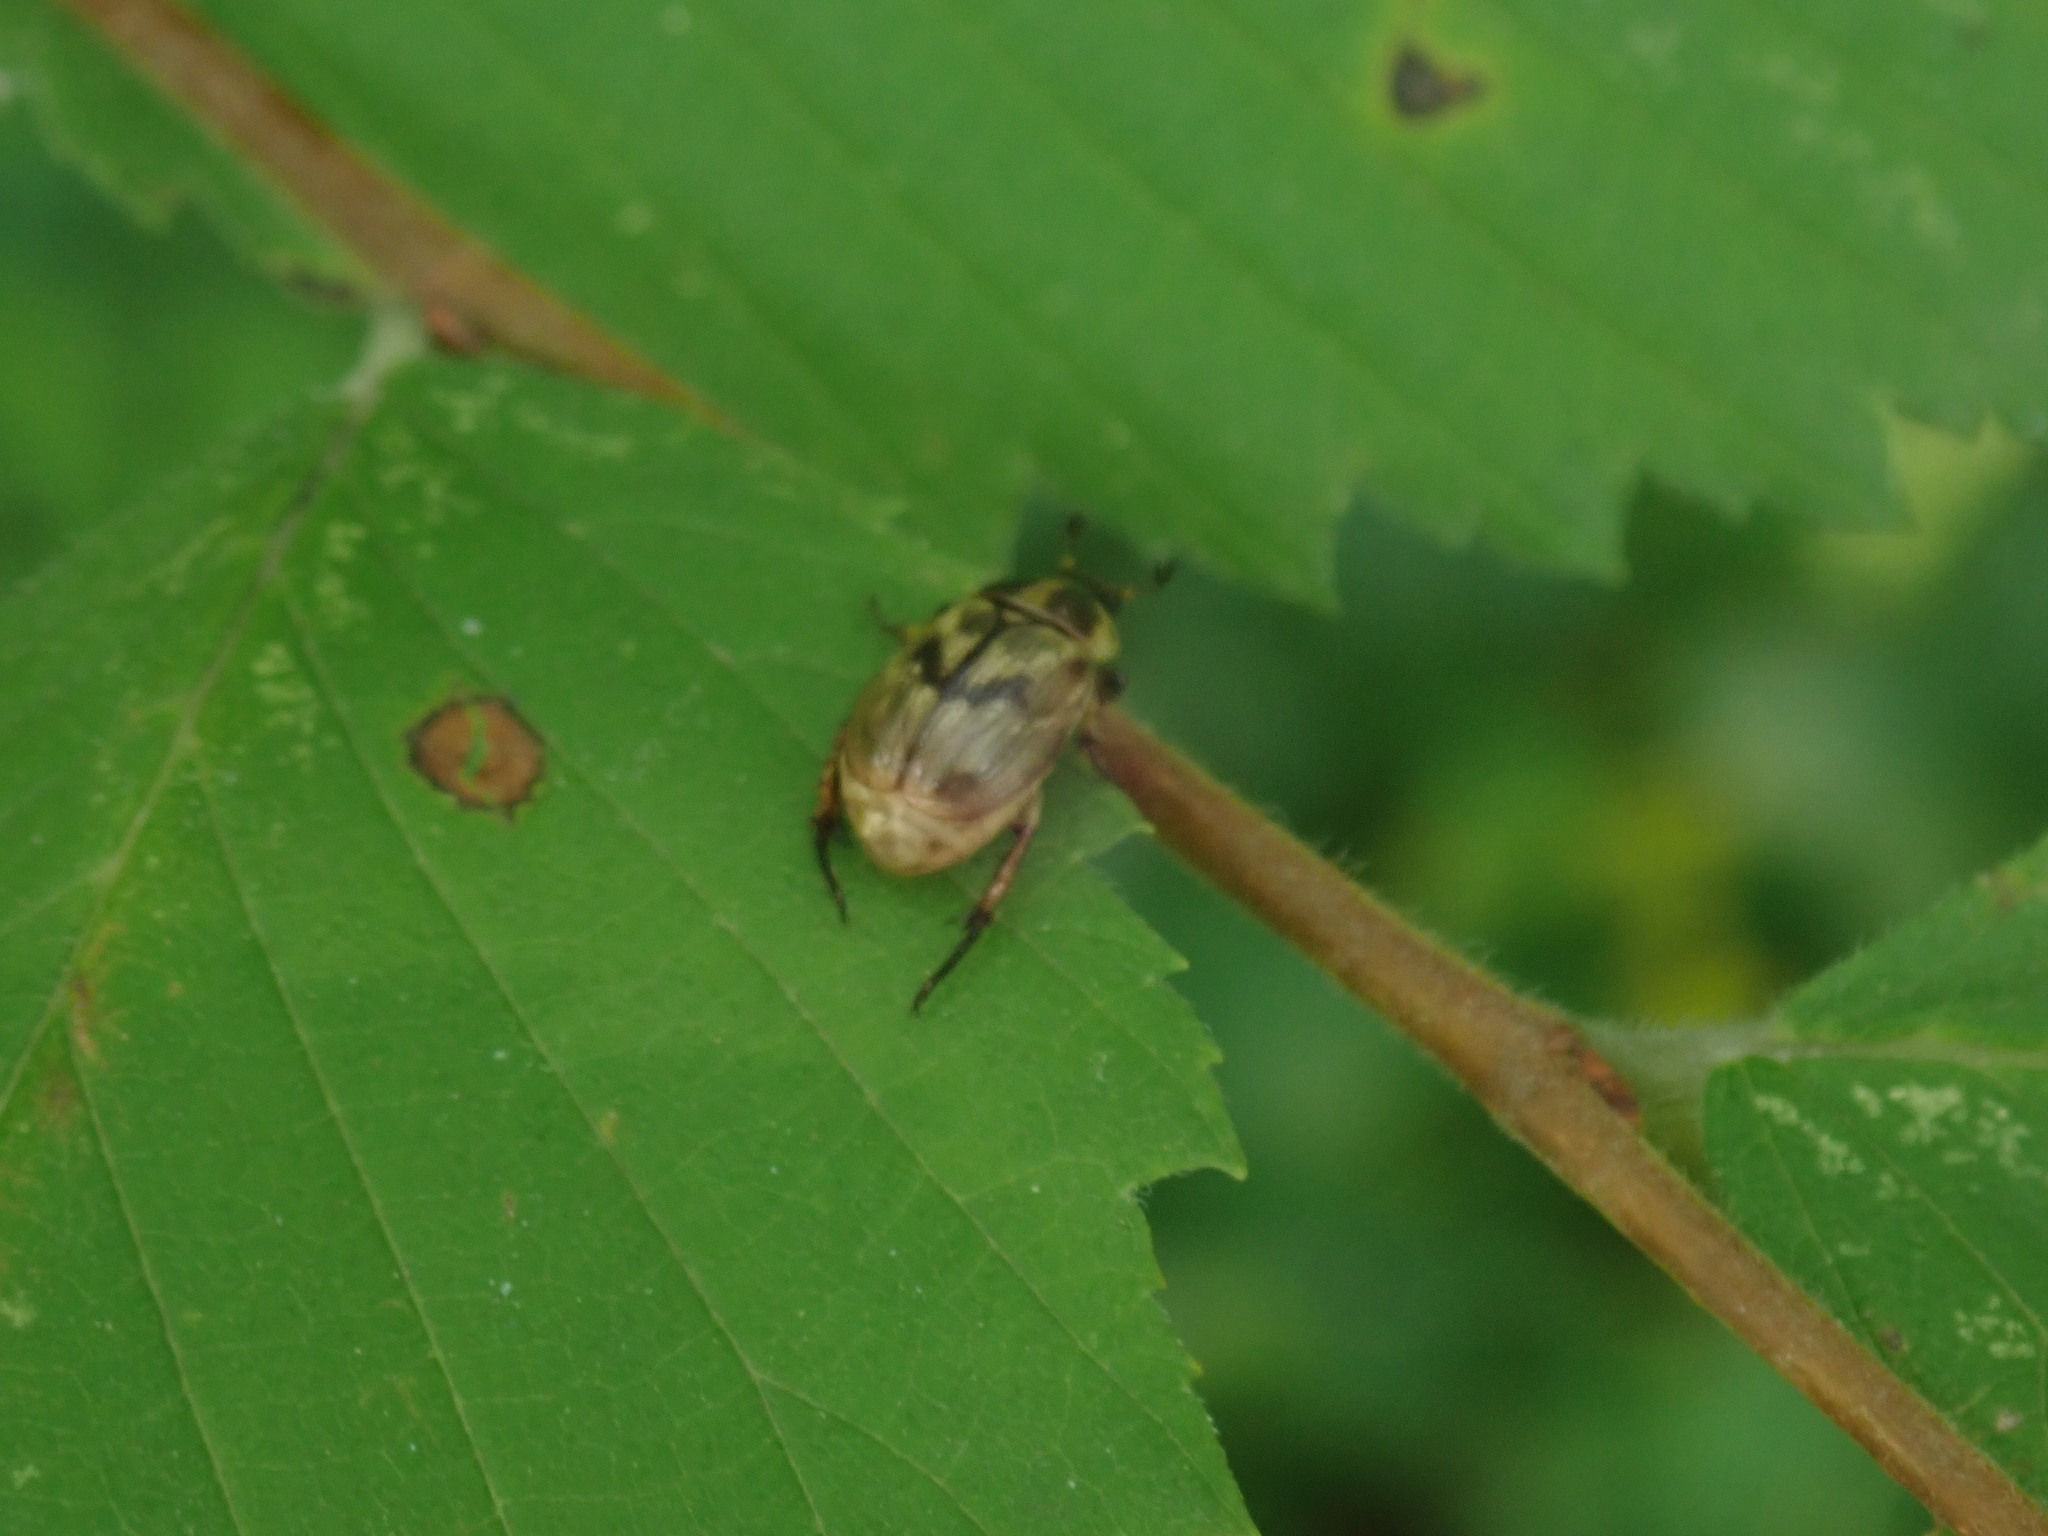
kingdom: Animalia
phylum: Arthropoda
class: Insecta
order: Coleoptera
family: Scarabaeidae
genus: Exomala
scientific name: Exomala orientalis
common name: Oriental beetle
